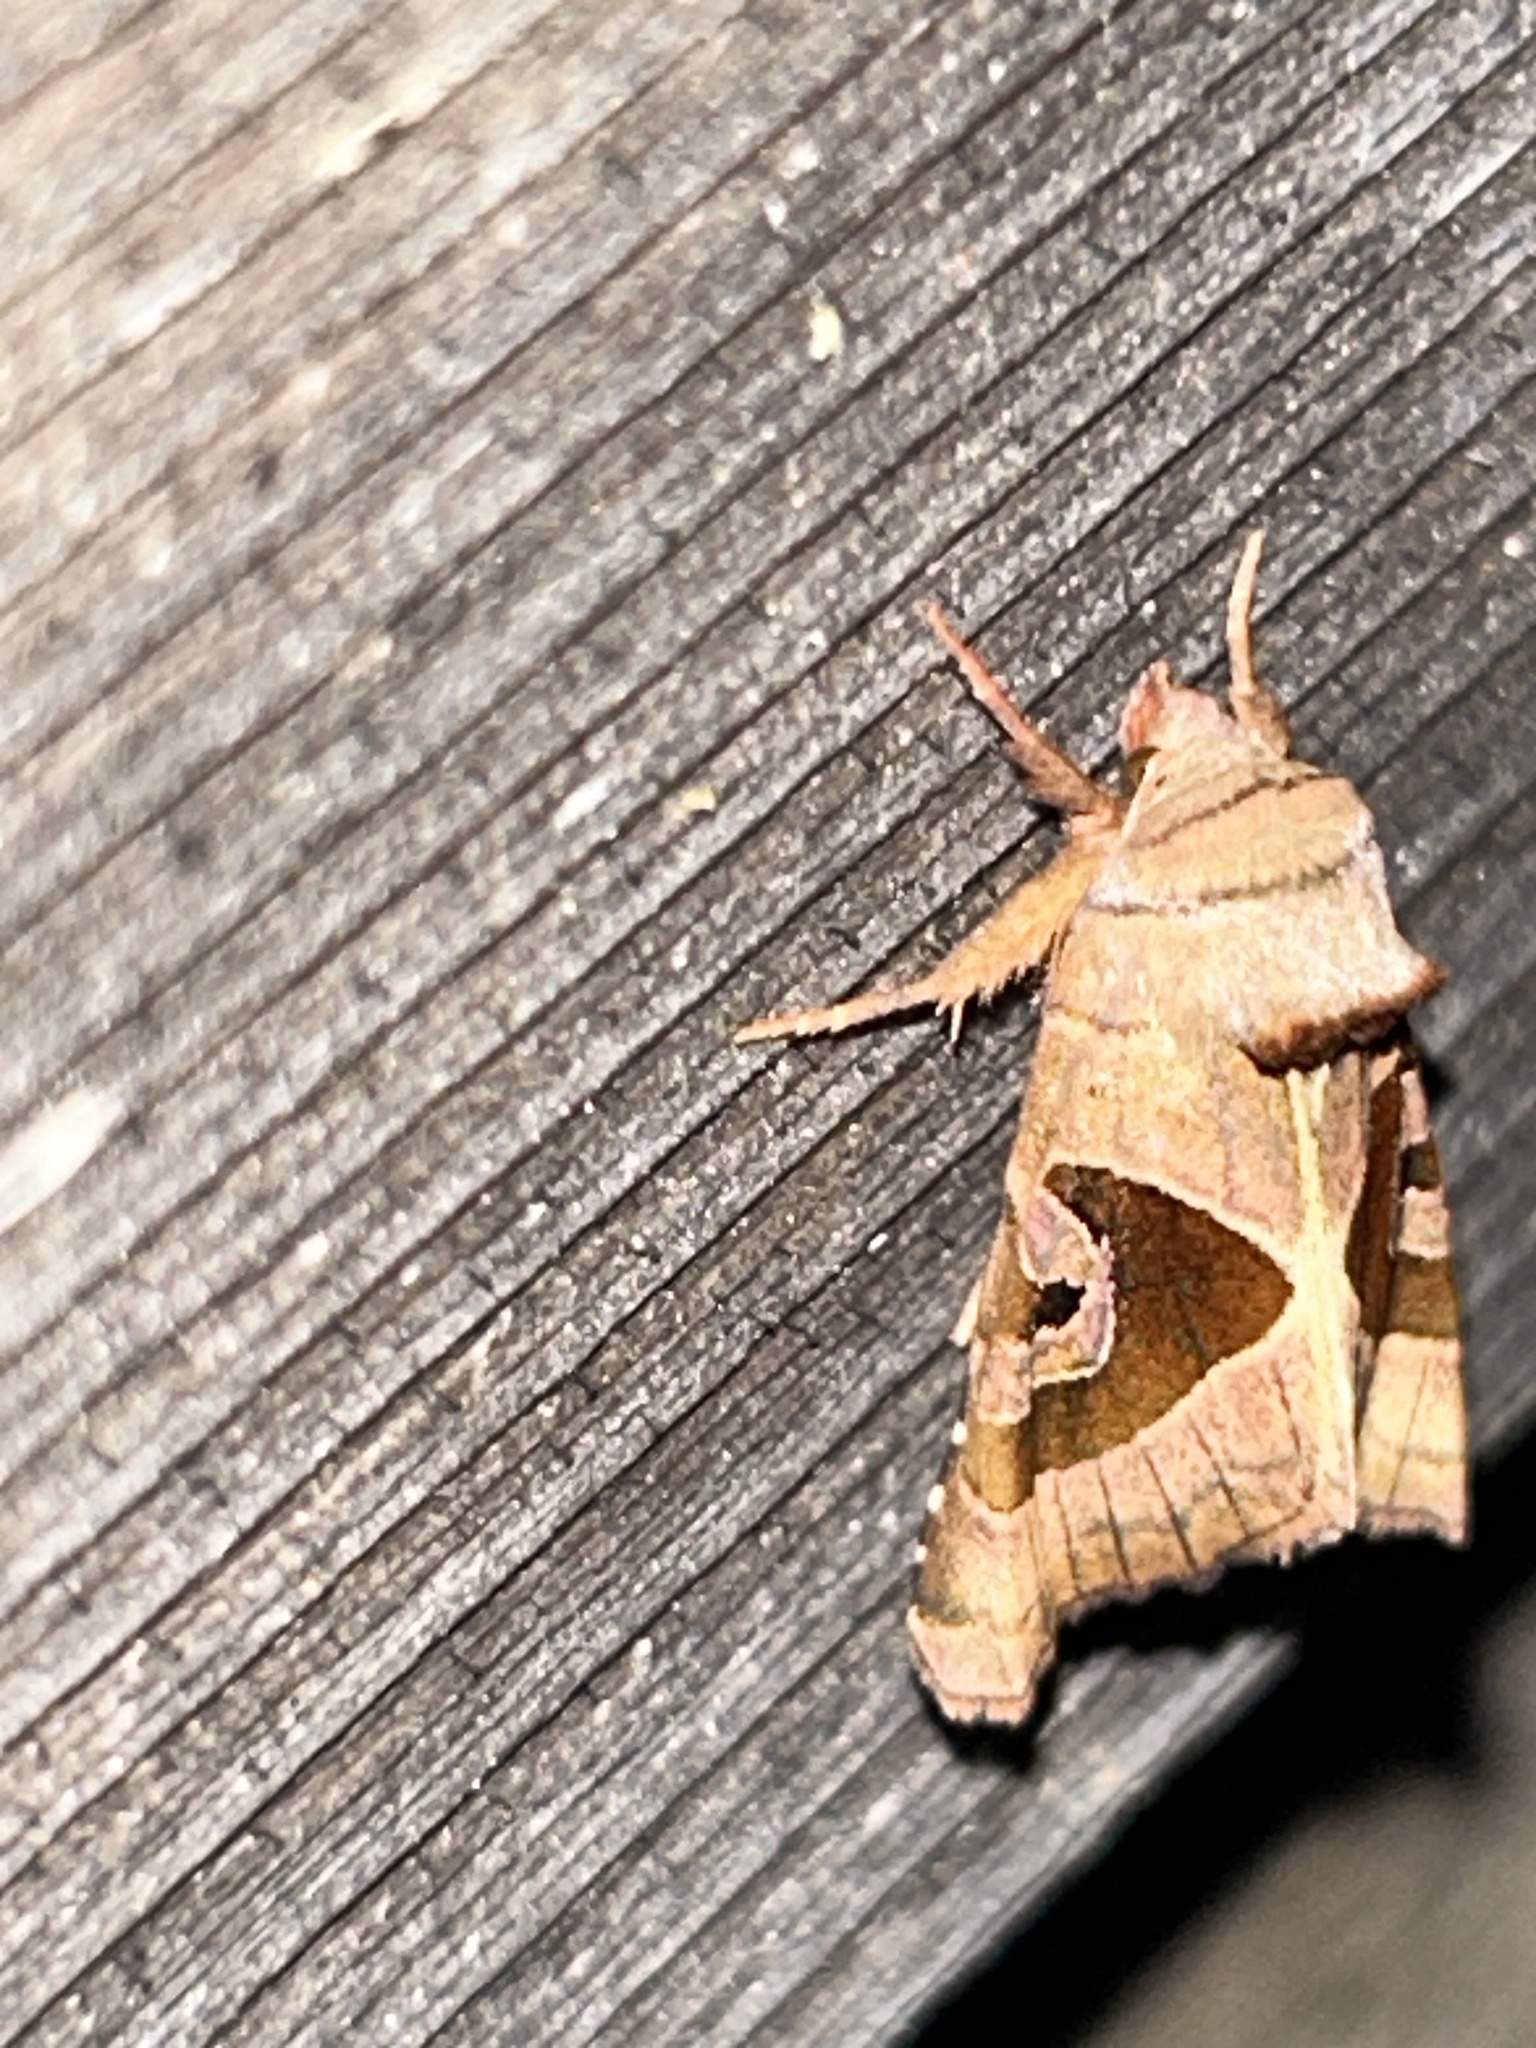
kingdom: Animalia
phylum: Arthropoda
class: Insecta
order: Lepidoptera
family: Noctuidae
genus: Conservula
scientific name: Conservula anodonta
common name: Sharp angle shades
